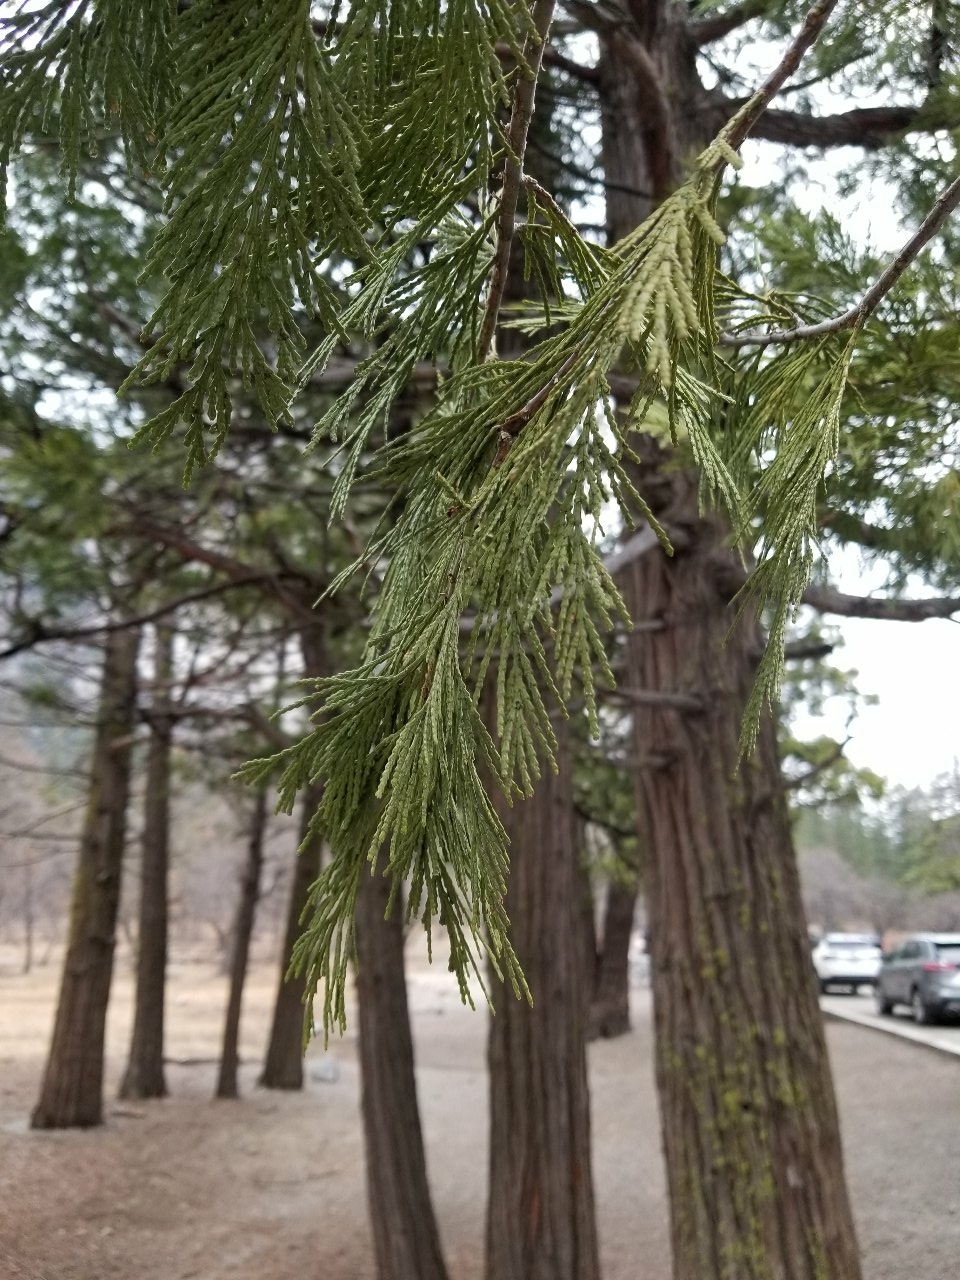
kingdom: Plantae
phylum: Tracheophyta
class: Pinopsida
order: Pinales
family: Cupressaceae
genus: Calocedrus
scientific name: Calocedrus decurrens
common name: Californian incense-cedar
